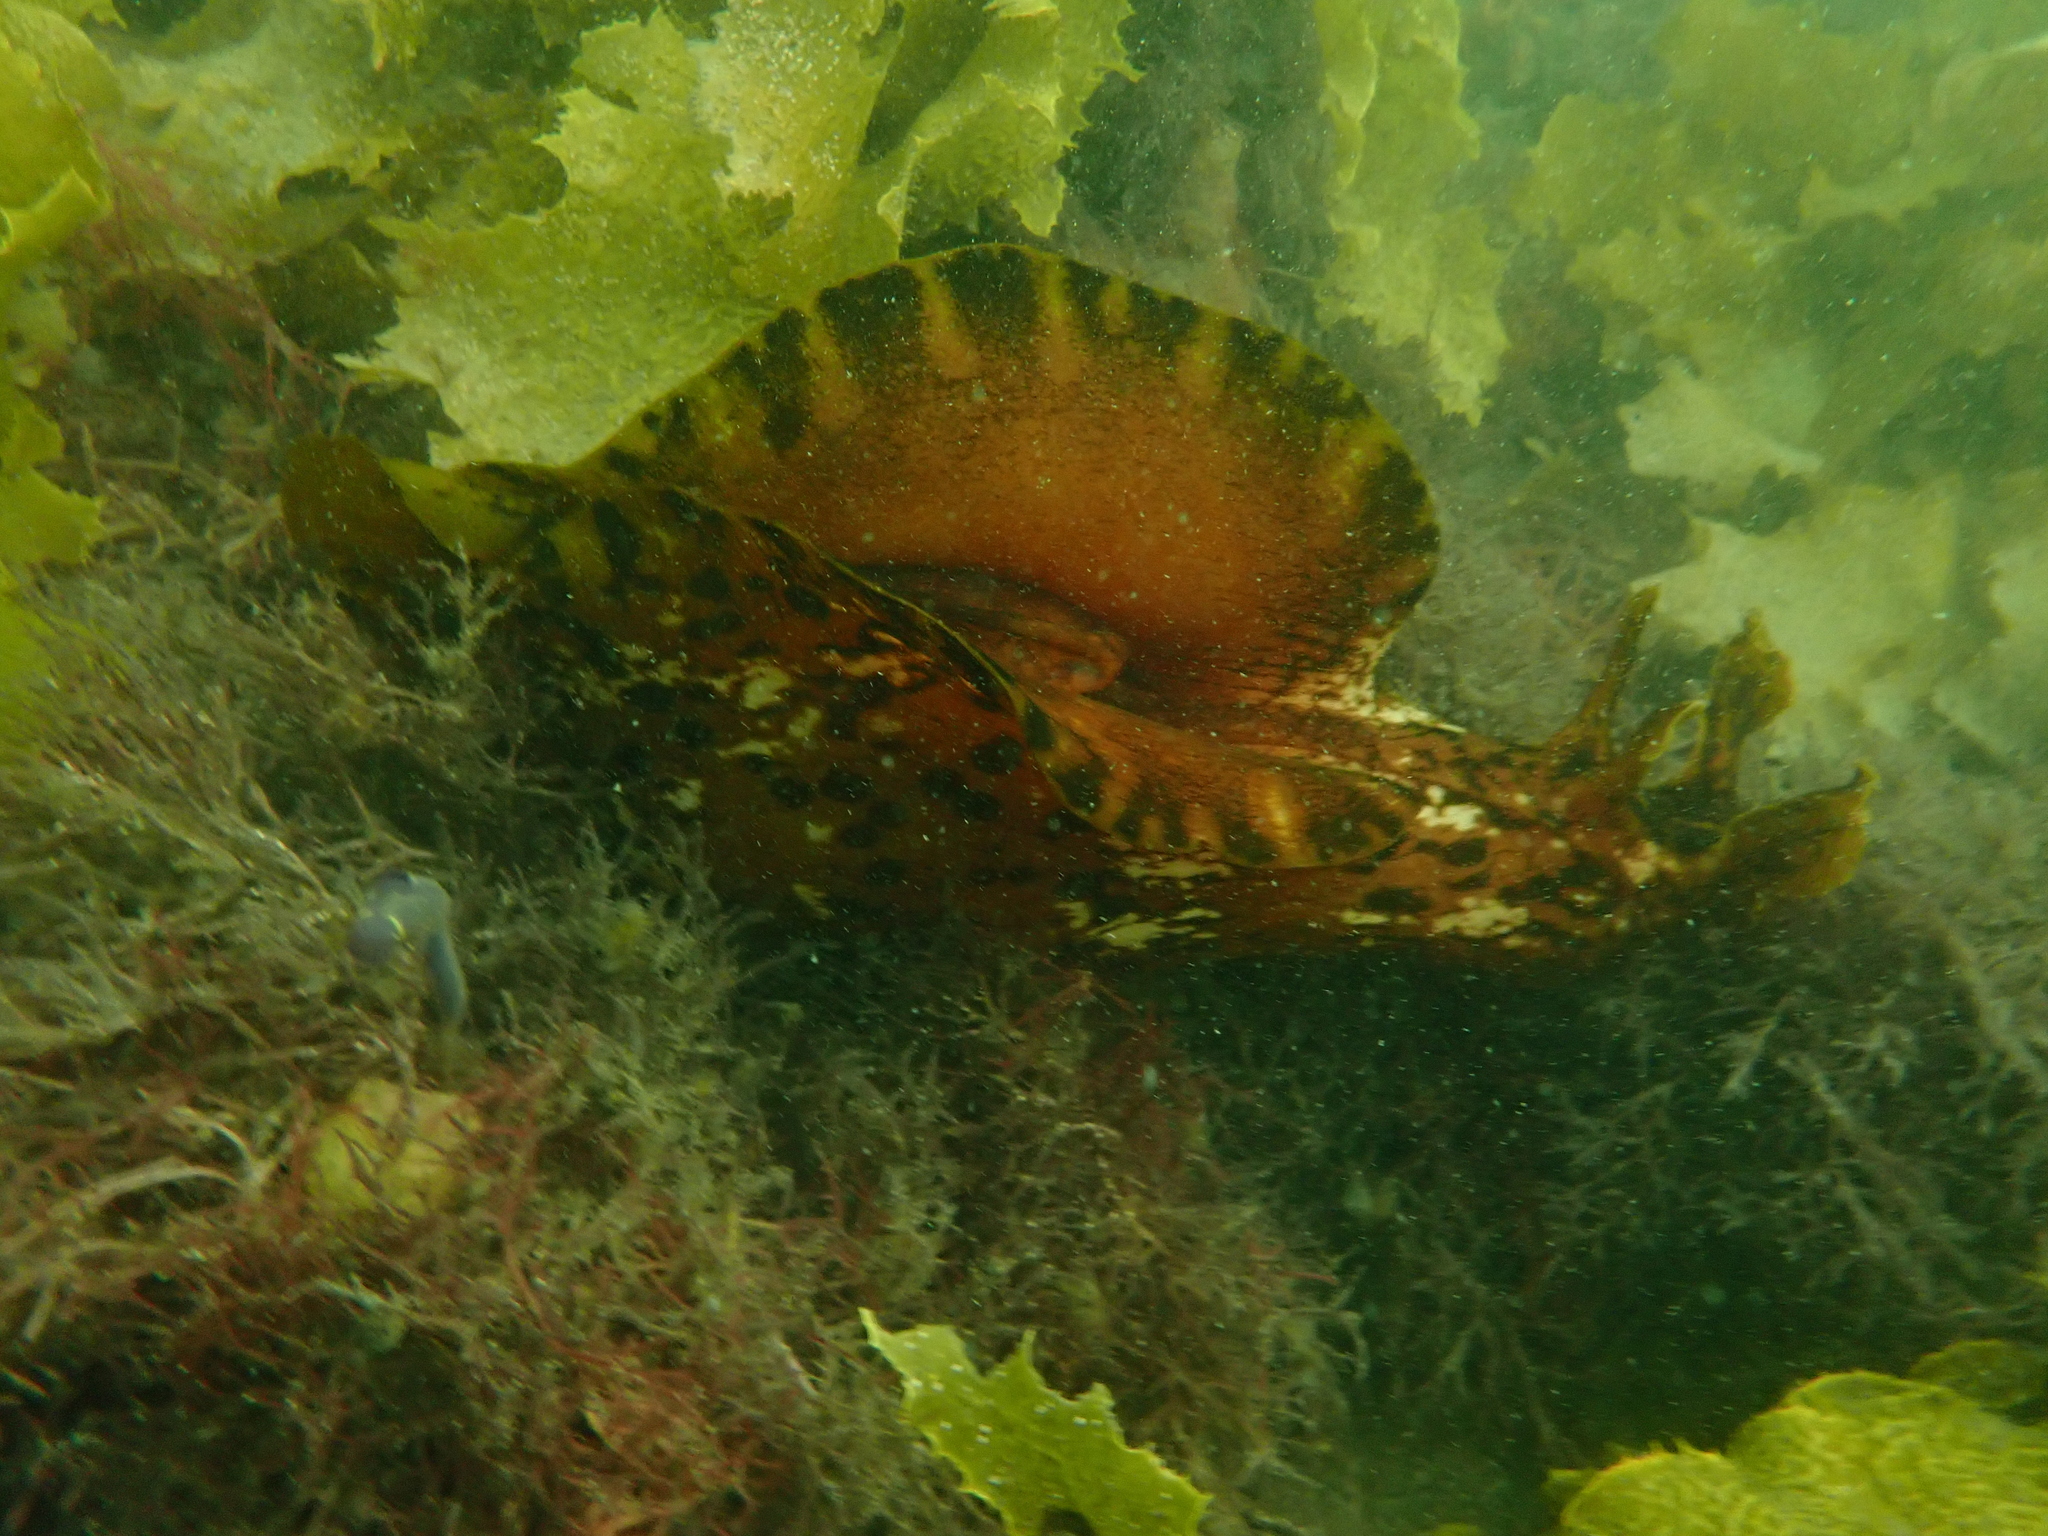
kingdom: Animalia
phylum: Mollusca
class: Gastropoda
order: Aplysiida
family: Aplysiidae
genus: Aplysia
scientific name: Aplysia extraordinaria
